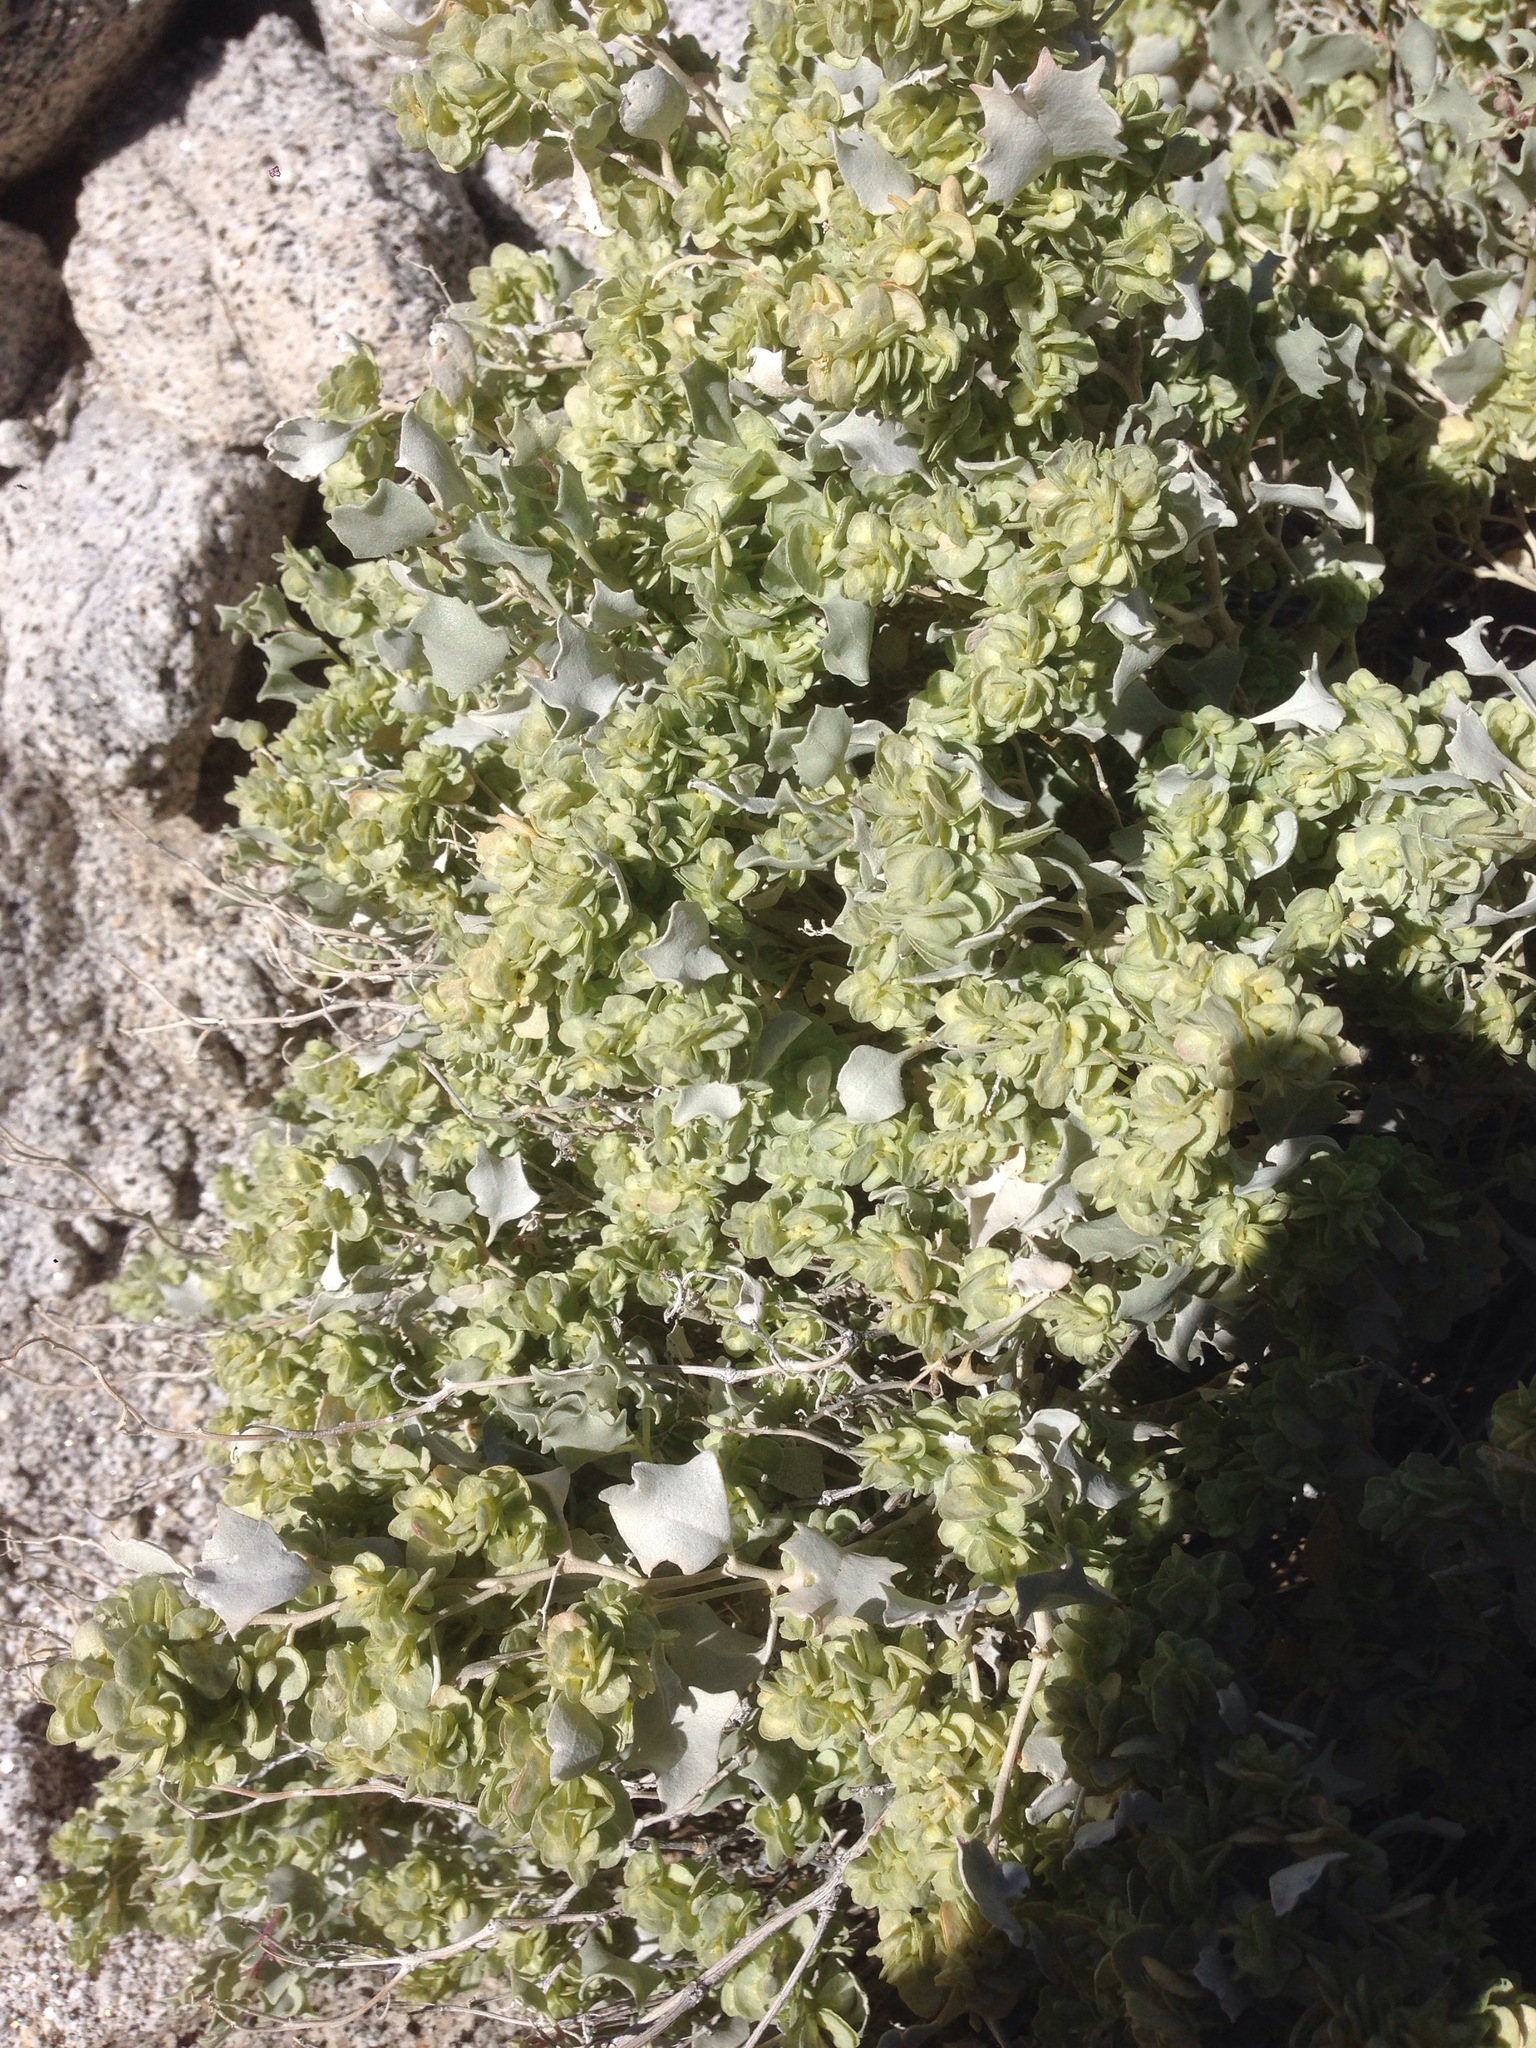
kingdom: Plantae
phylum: Tracheophyta
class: Magnoliopsida
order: Caryophyllales
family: Amaranthaceae
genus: Atriplex
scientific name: Atriplex hymenelytra
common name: Desert-holly
